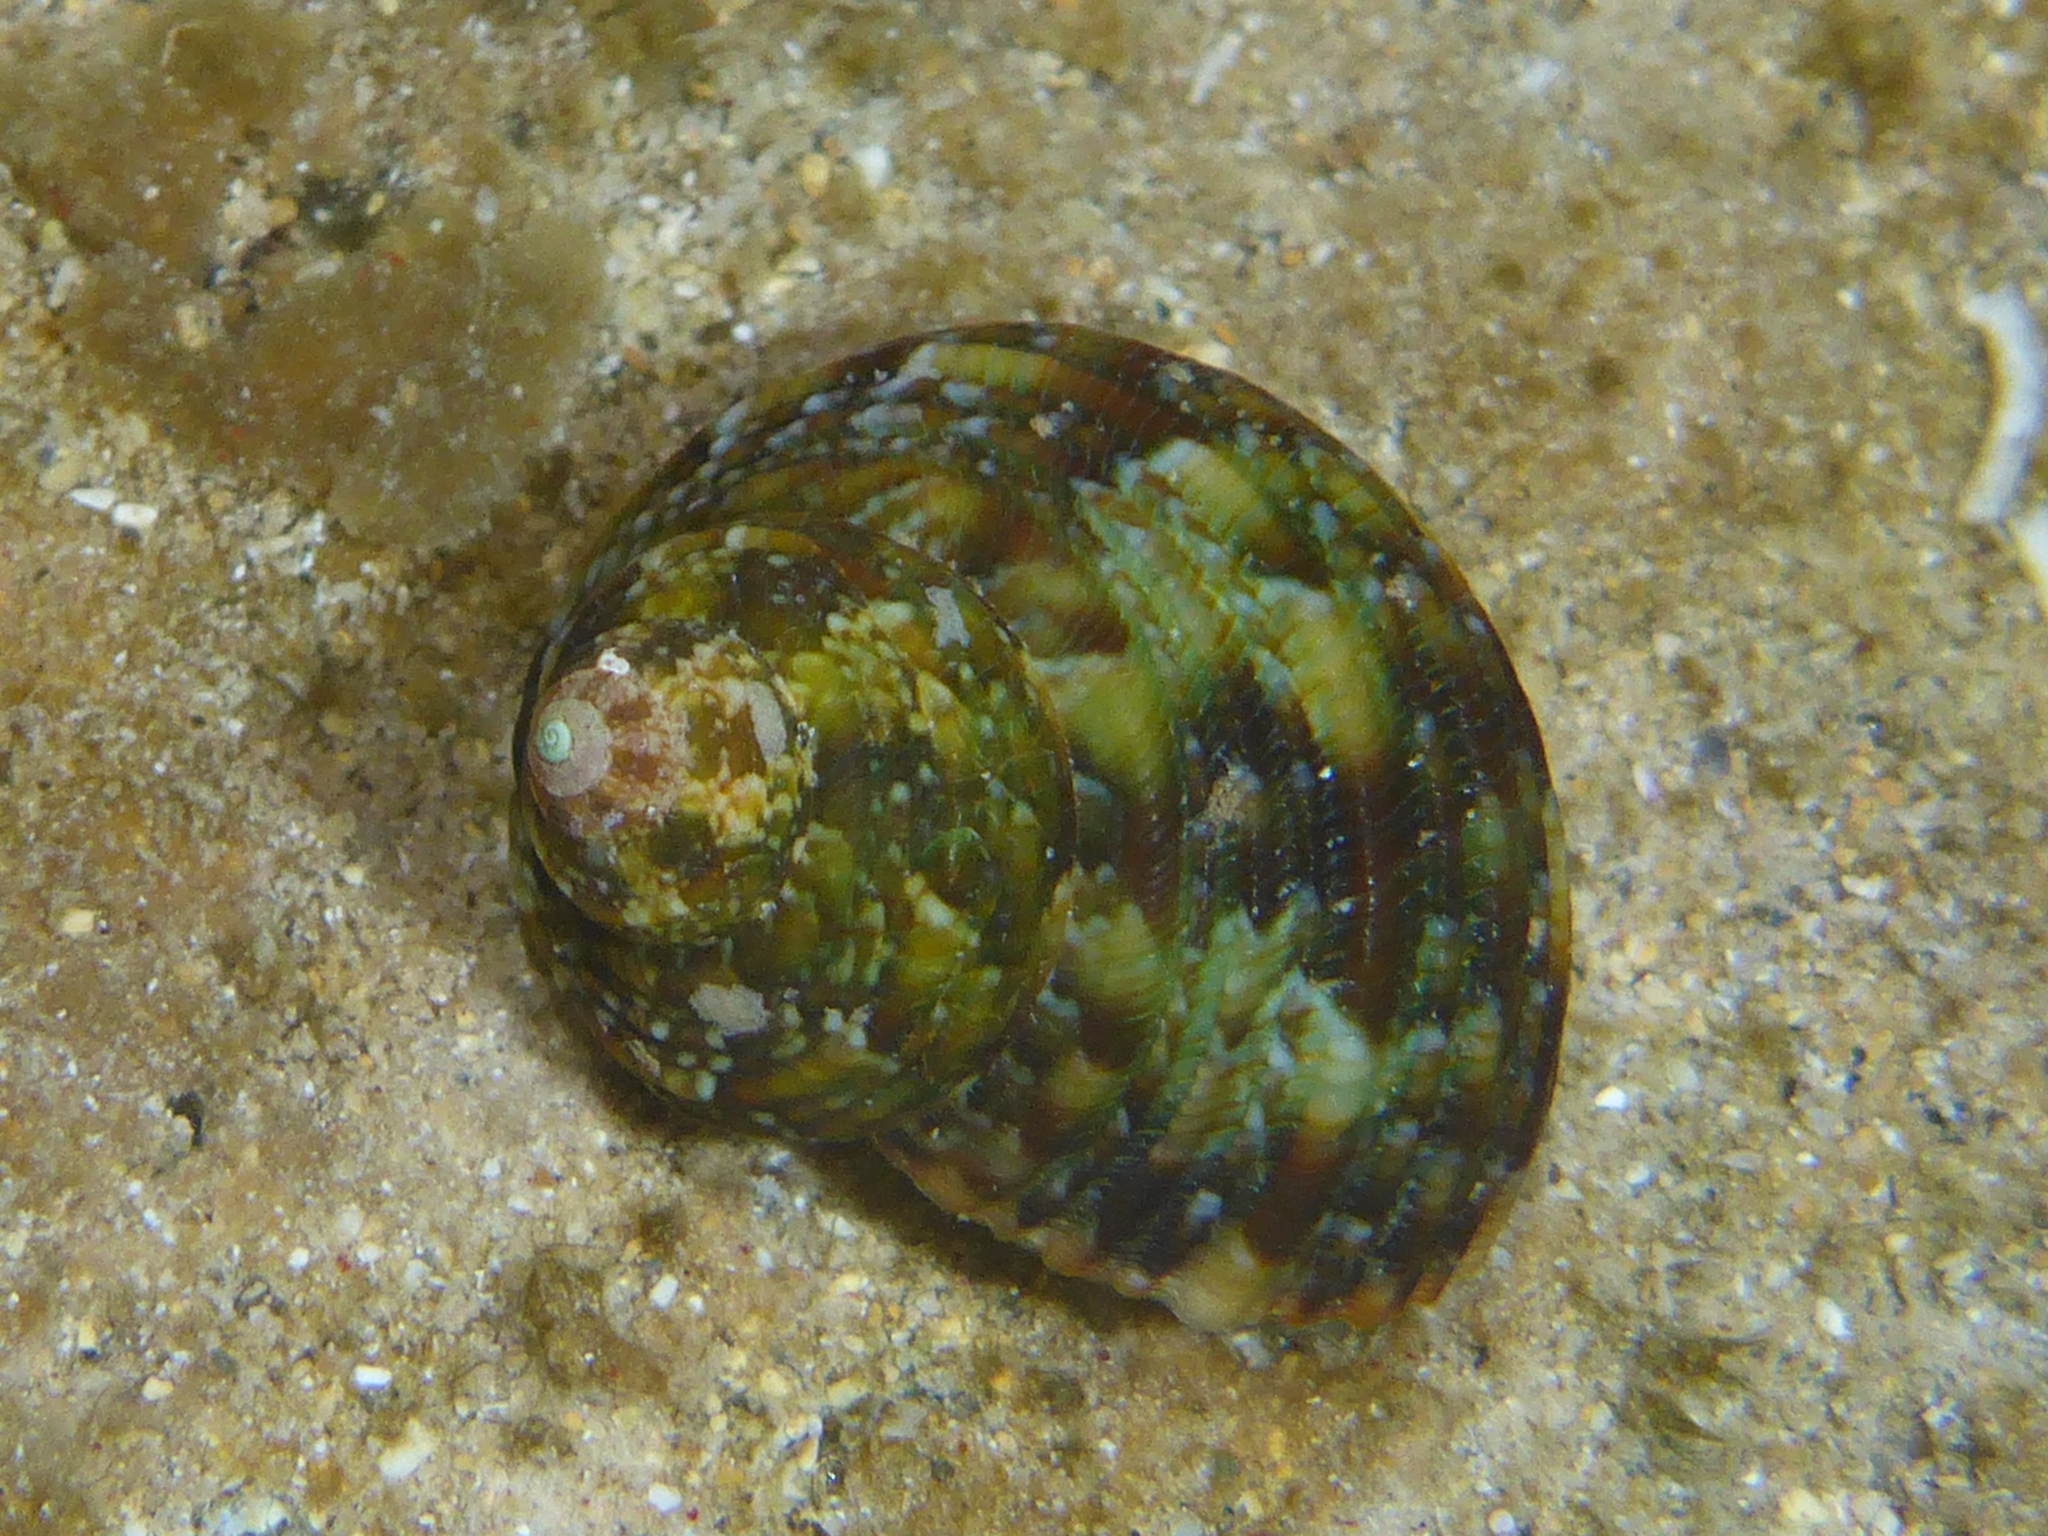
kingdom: Animalia
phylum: Mollusca
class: Gastropoda
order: Trochida
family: Turbinidae
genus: Turbo
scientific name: Turbo sandwicensis
